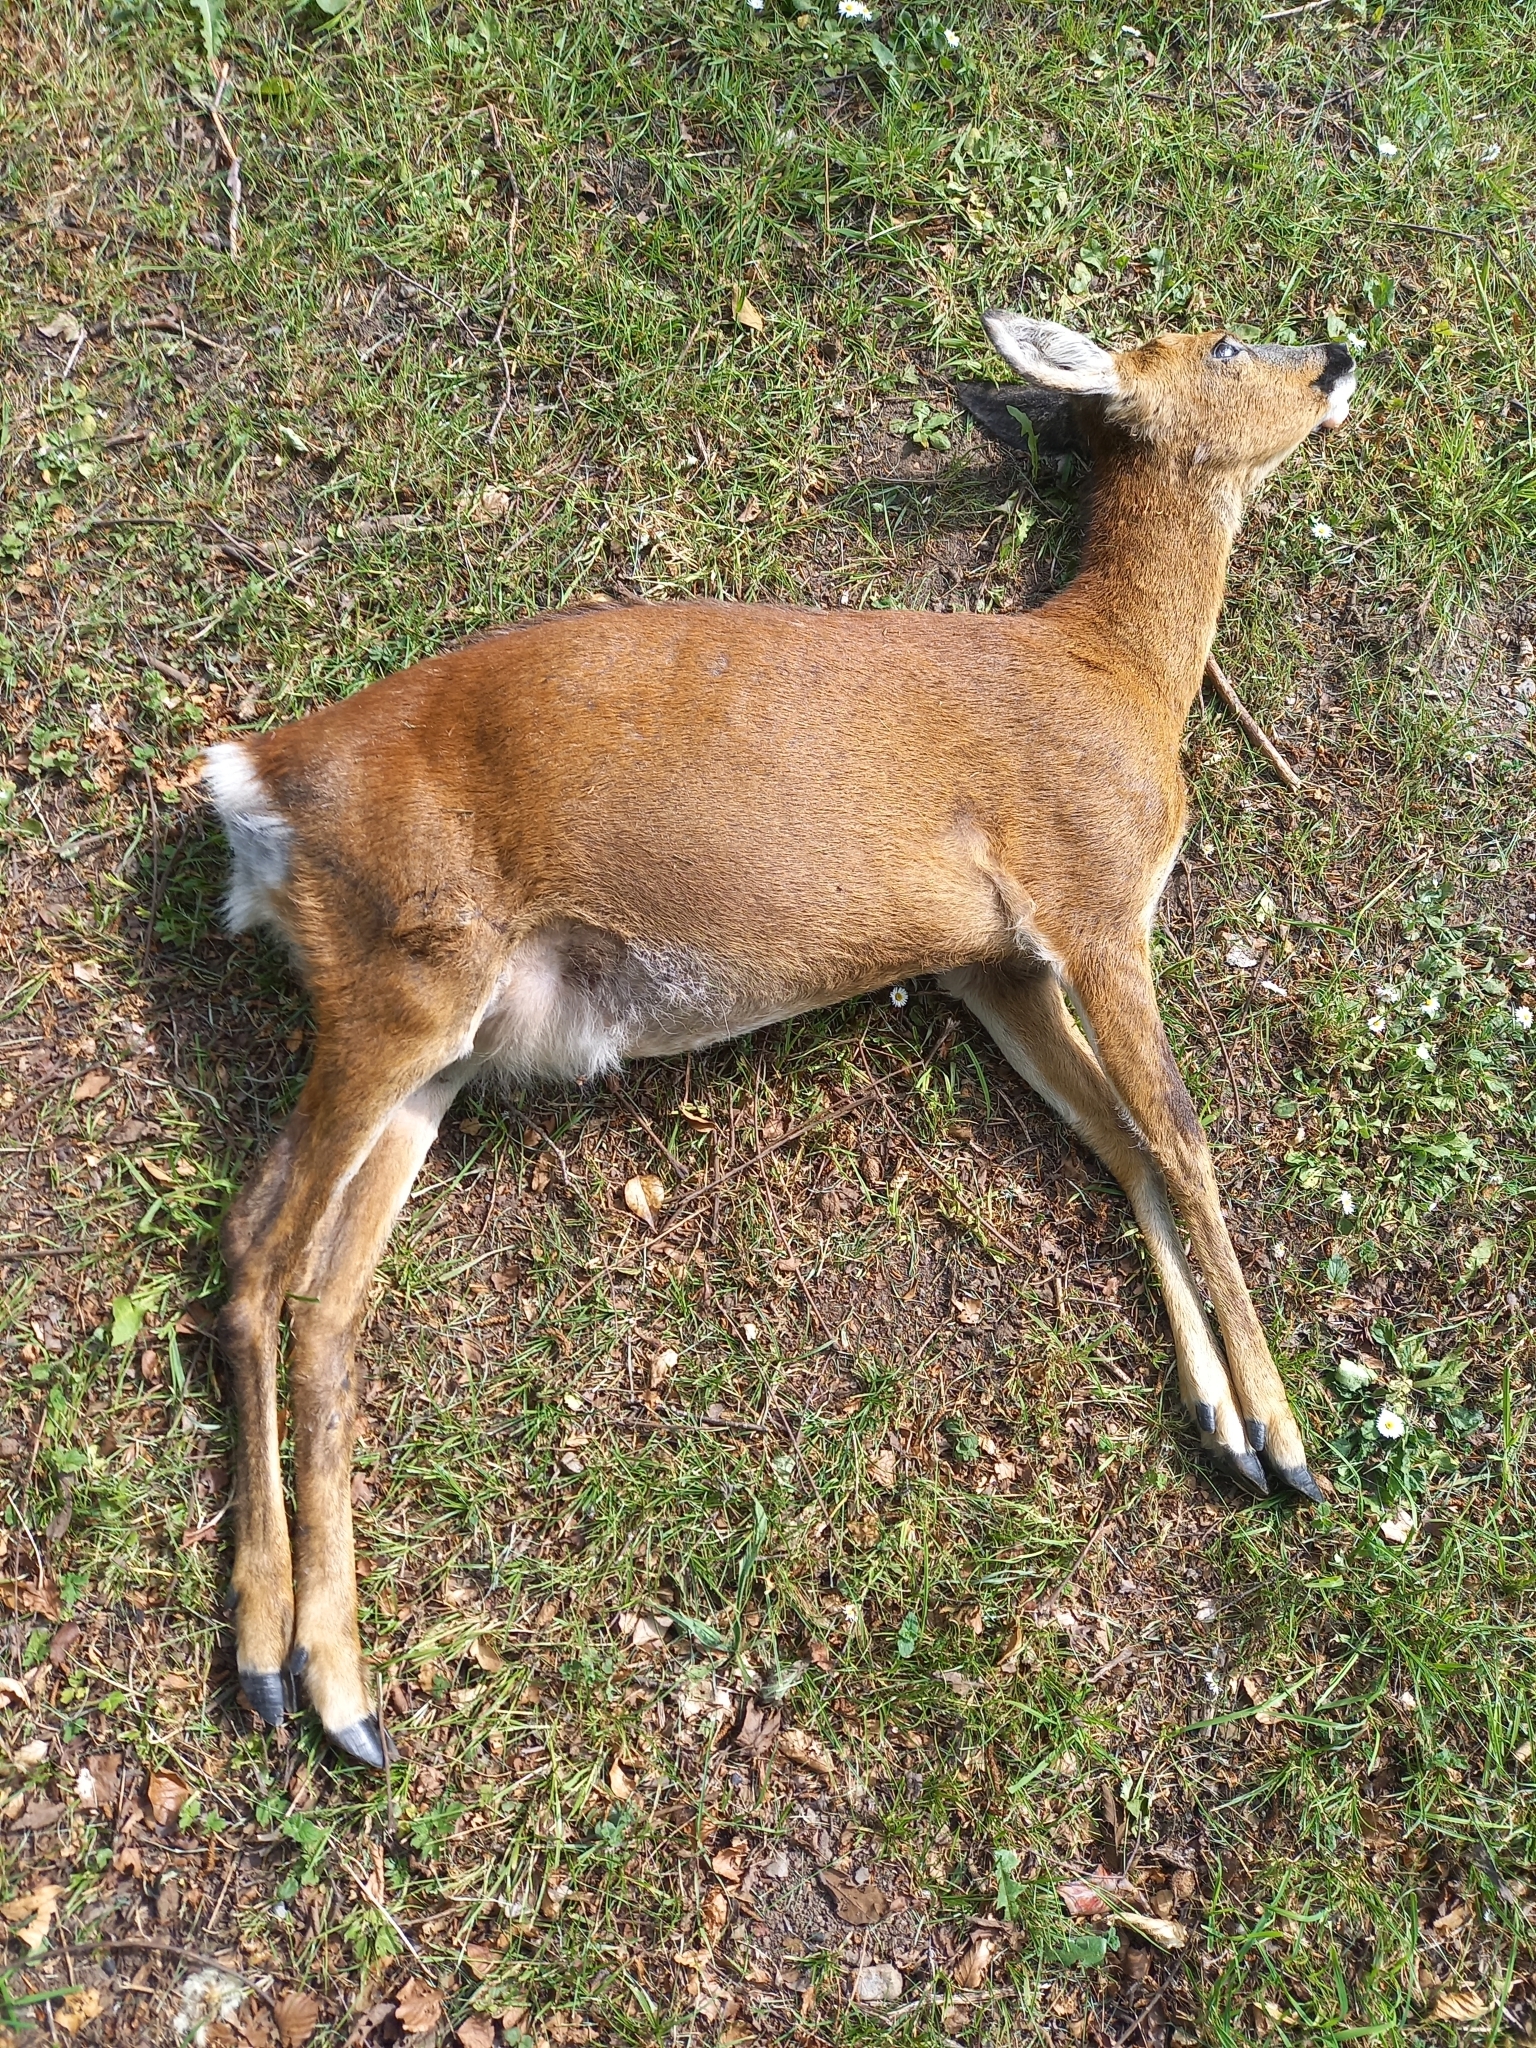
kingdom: Animalia
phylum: Chordata
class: Mammalia
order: Artiodactyla
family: Cervidae
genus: Capreolus
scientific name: Capreolus capreolus
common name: Western roe deer
